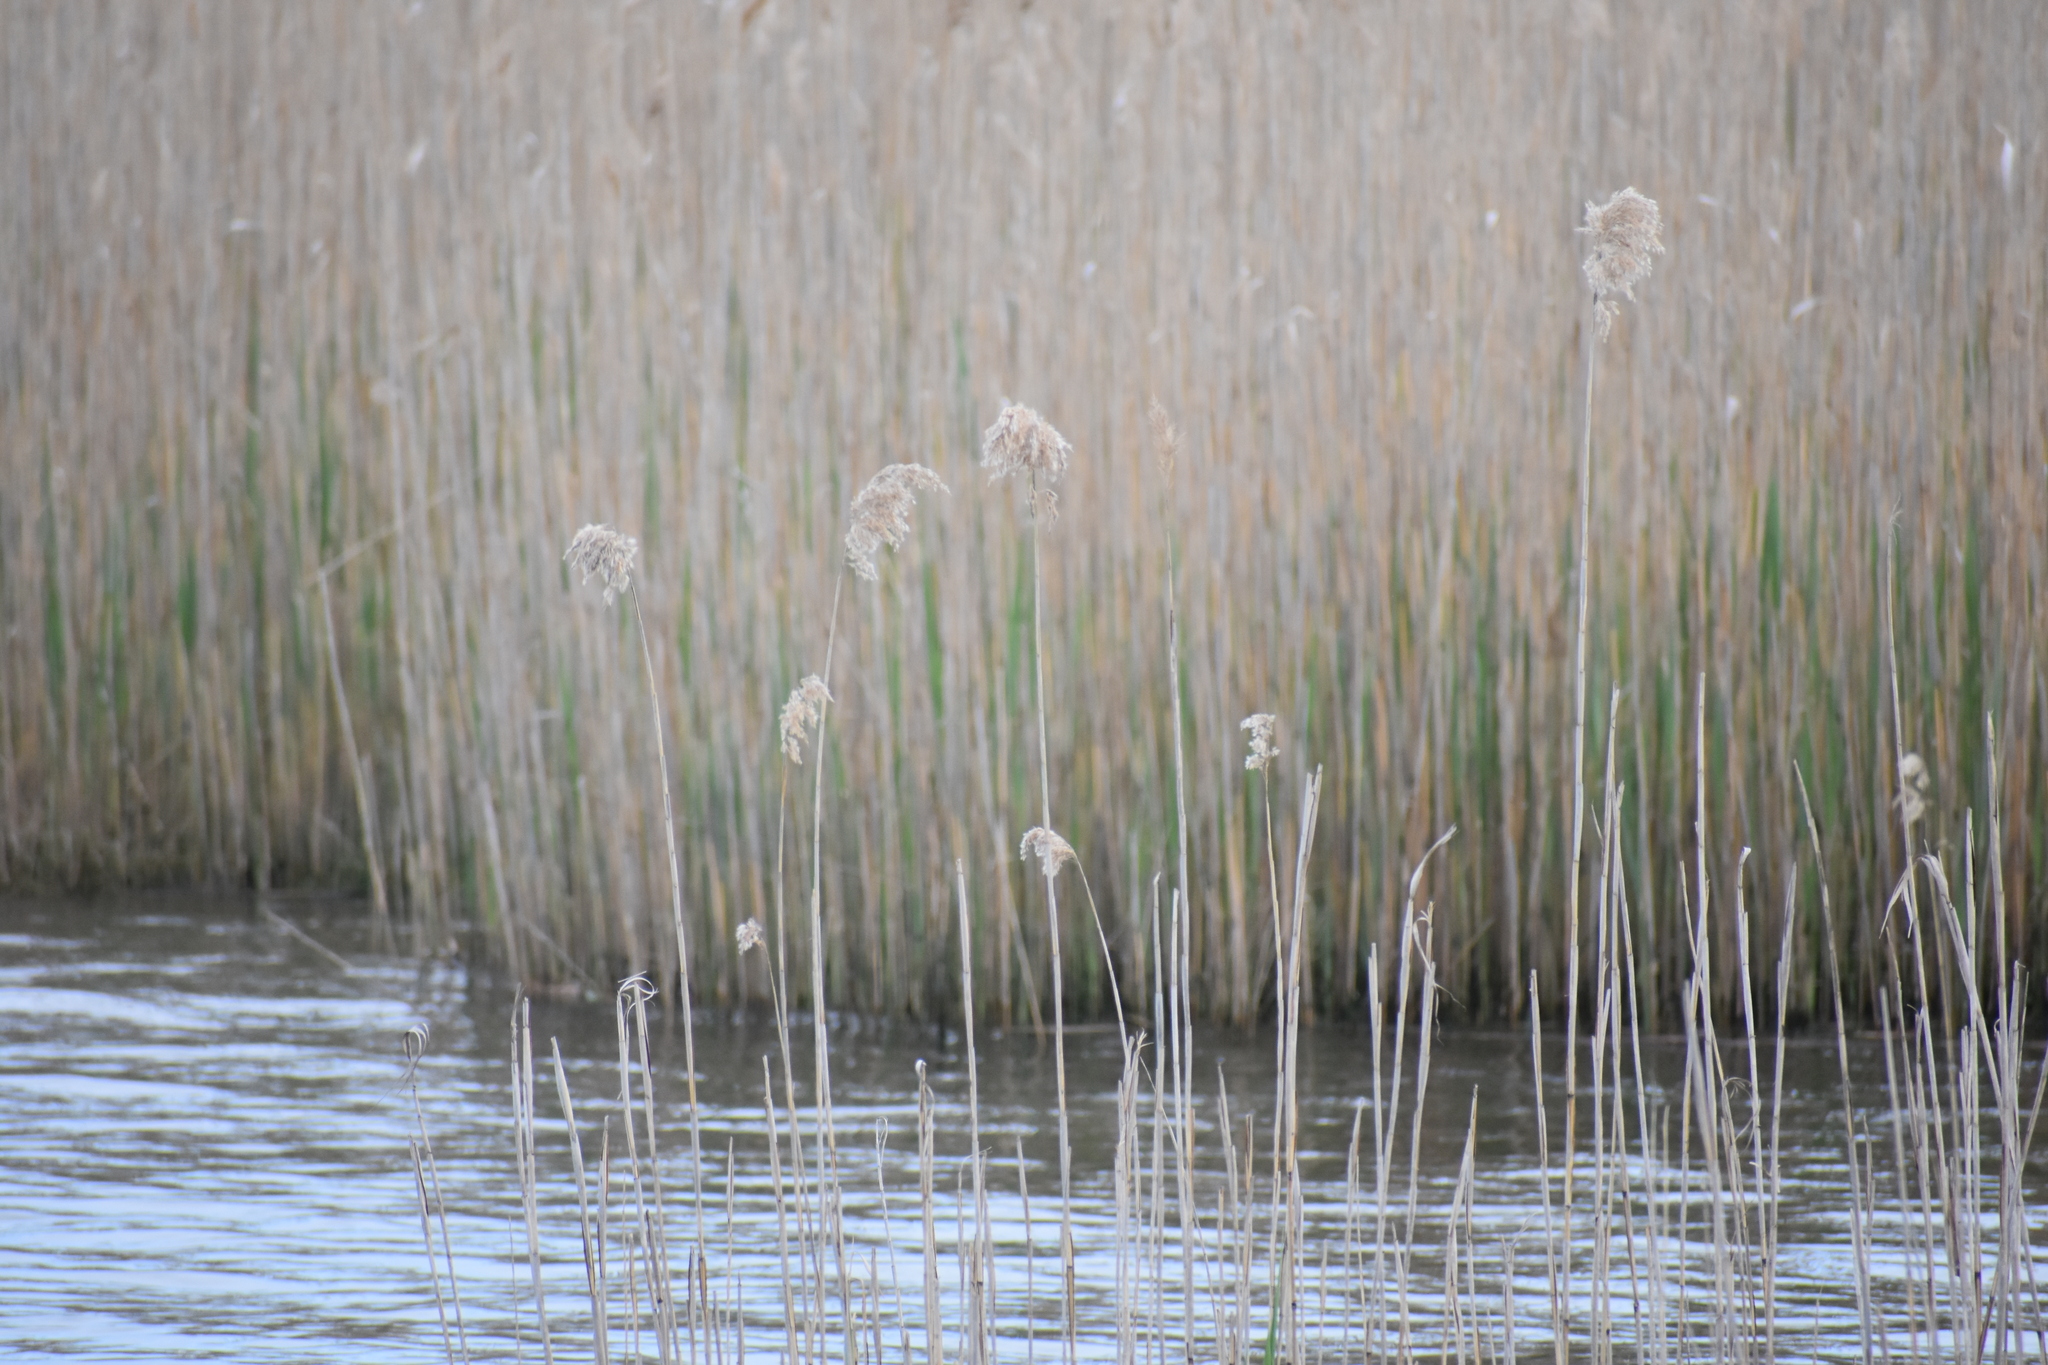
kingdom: Plantae
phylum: Tracheophyta
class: Liliopsida
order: Poales
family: Poaceae
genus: Phragmites
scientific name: Phragmites australis
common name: Common reed
